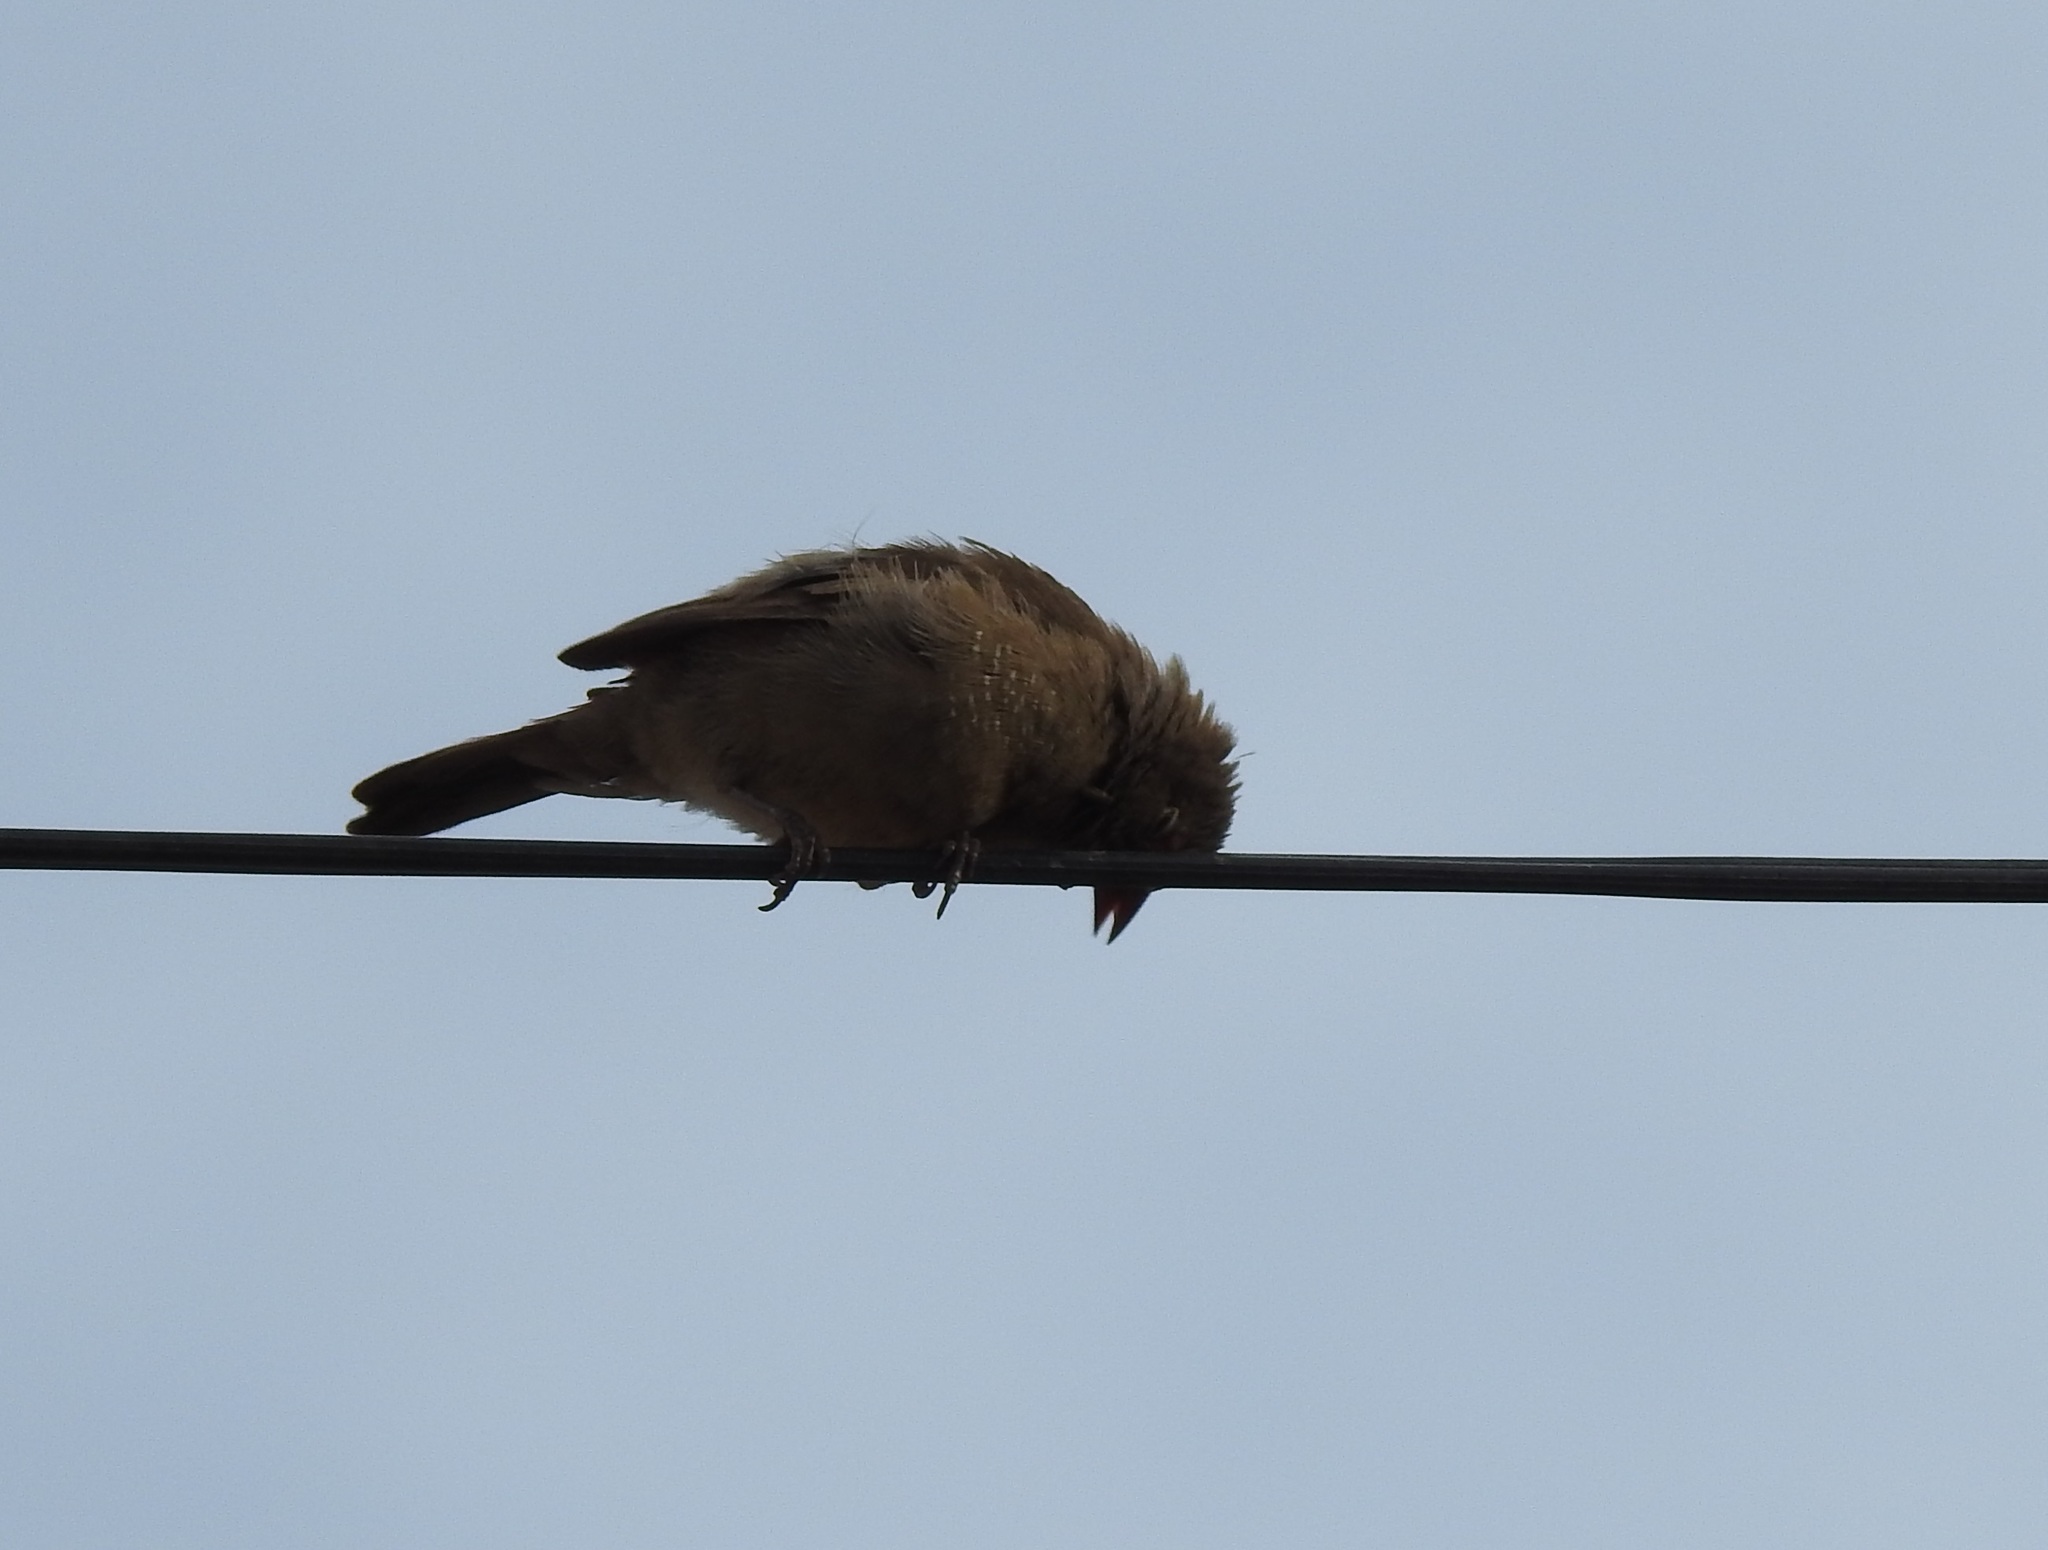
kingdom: Animalia
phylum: Chordata
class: Aves
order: Passeriformes
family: Estrildidae
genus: Lagonosticta
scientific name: Lagonosticta senegala
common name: Red-billed firefinch
